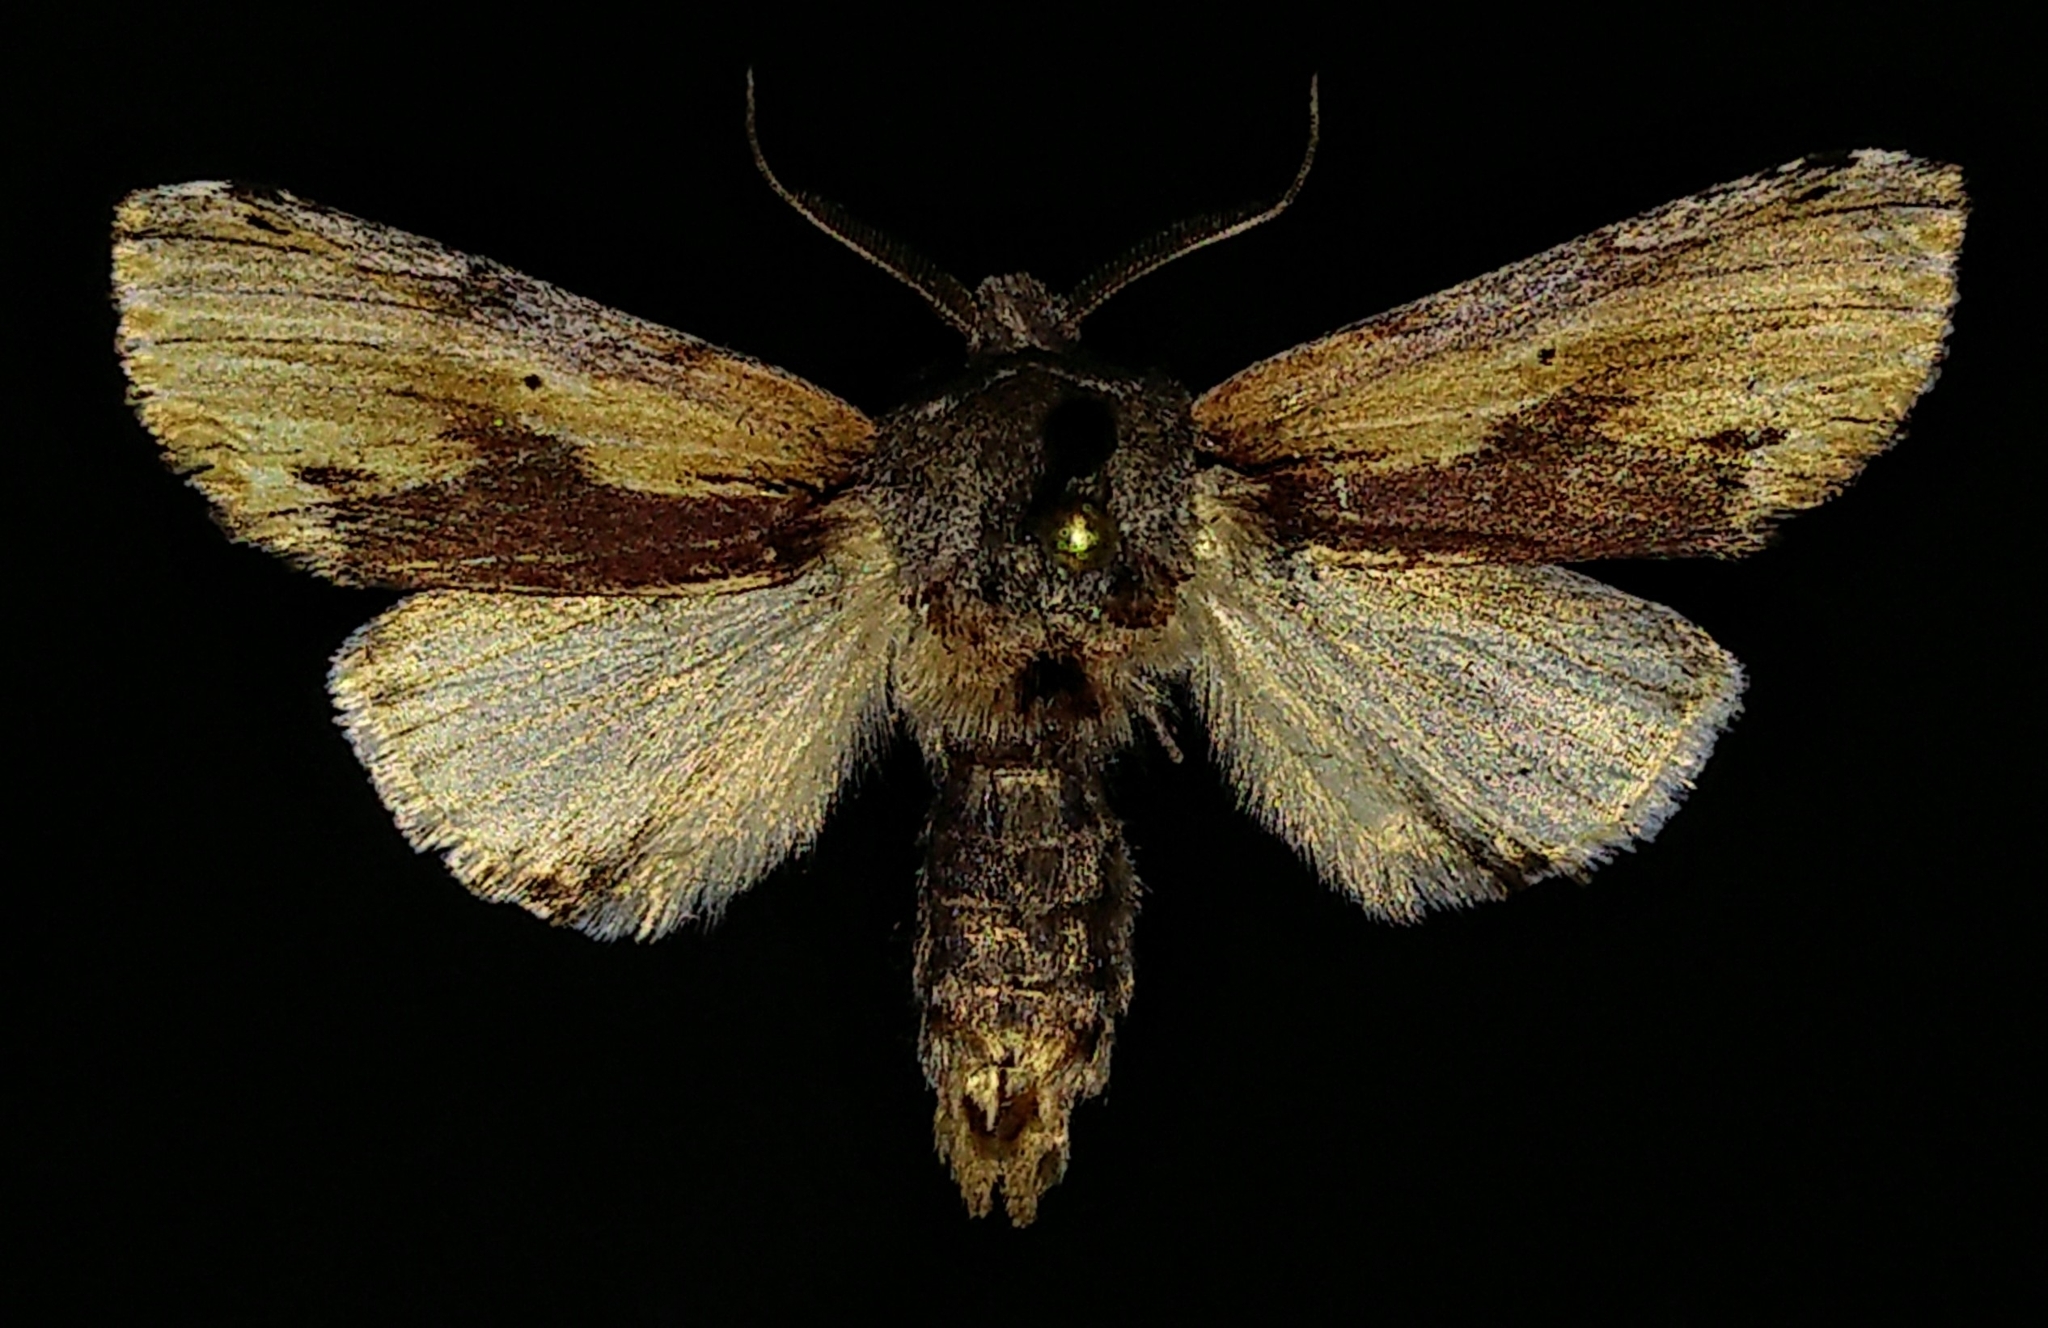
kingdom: Animalia
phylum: Arthropoda
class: Insecta
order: Lepidoptera
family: Notodontidae
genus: Schizura
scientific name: Schizura
